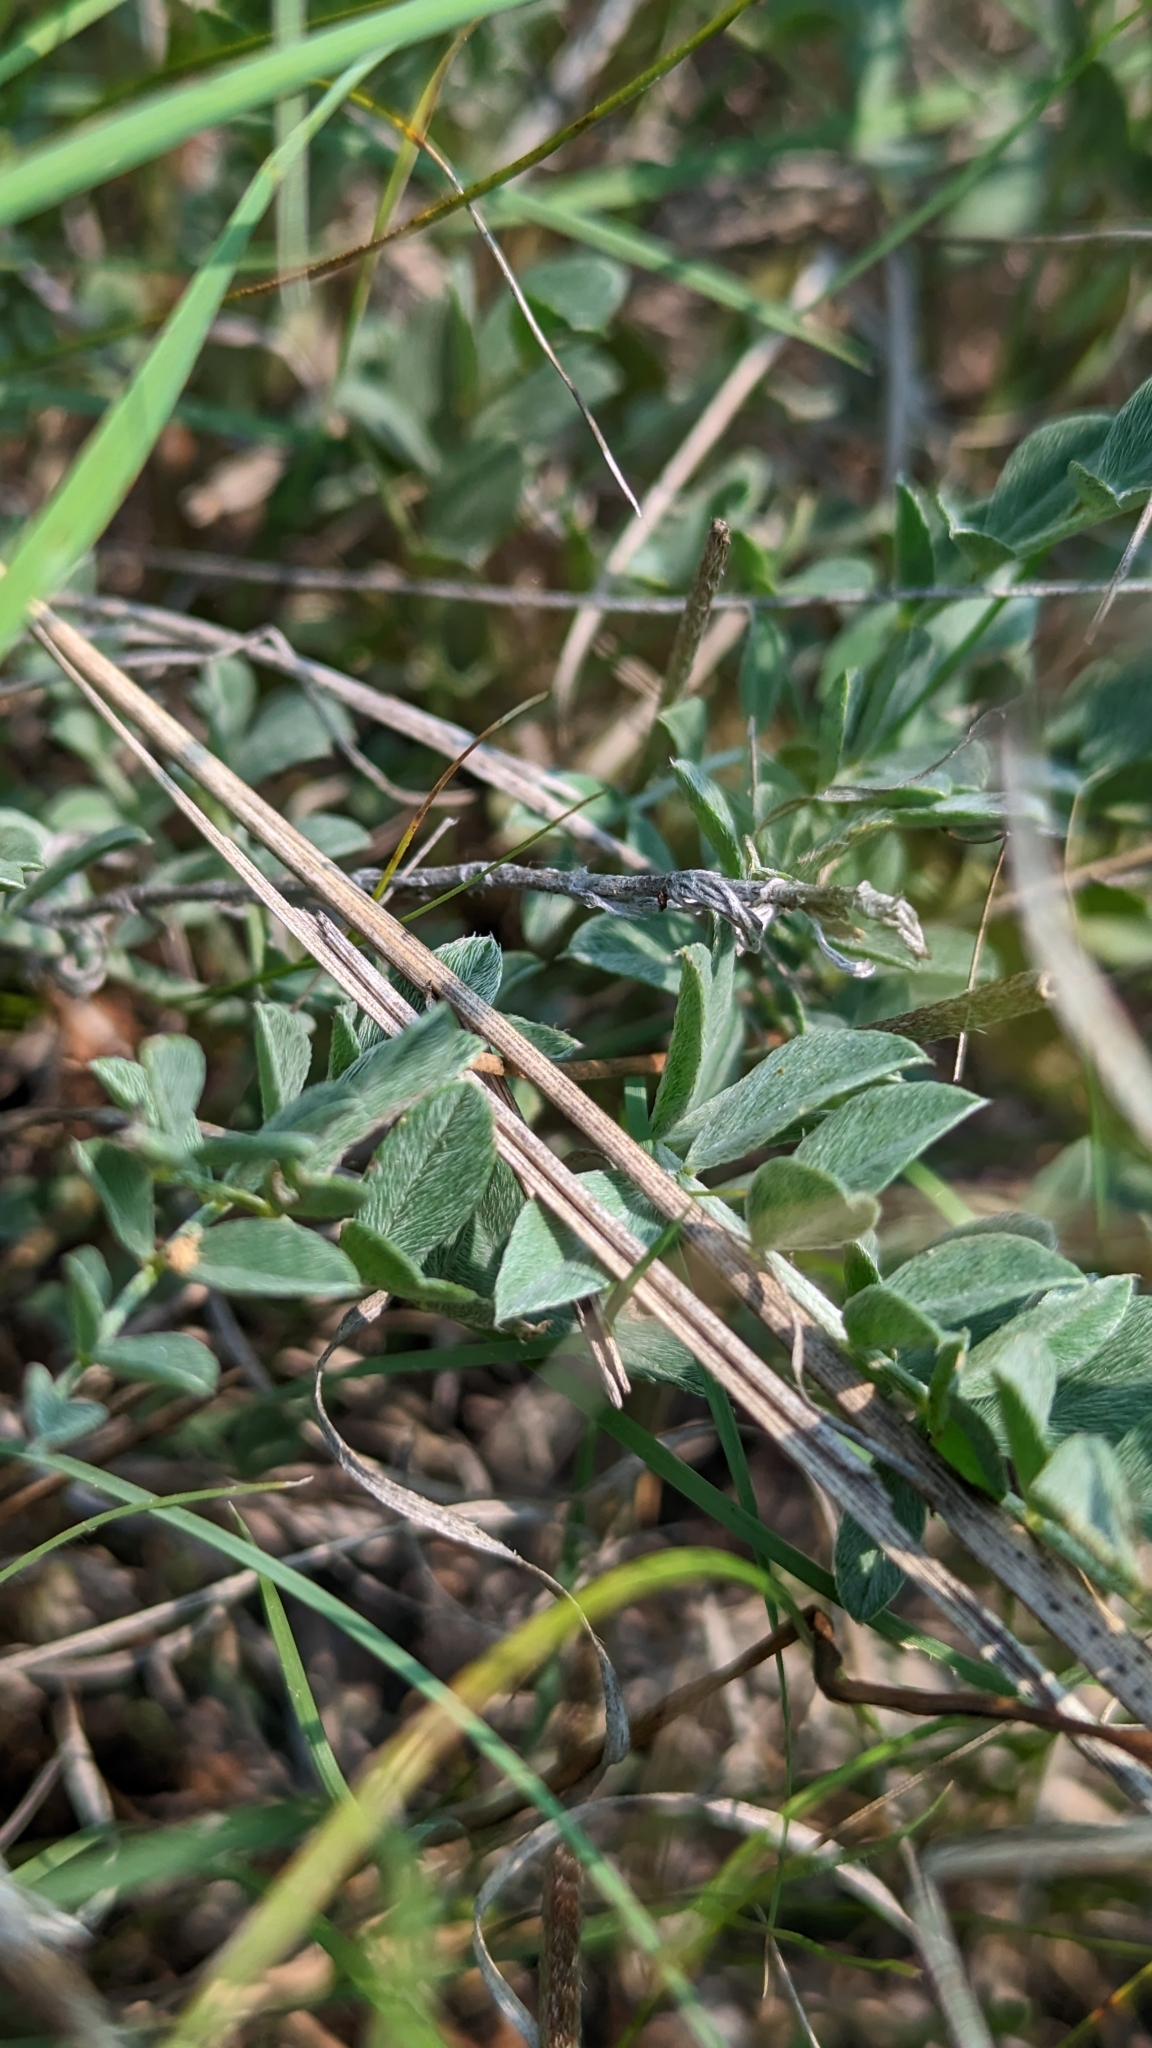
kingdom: Plantae
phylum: Tracheophyta
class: Magnoliopsida
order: Fabales
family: Fabaceae
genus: Astragalus
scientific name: Astragalus missouriensis
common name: Missouri milk-vetch
